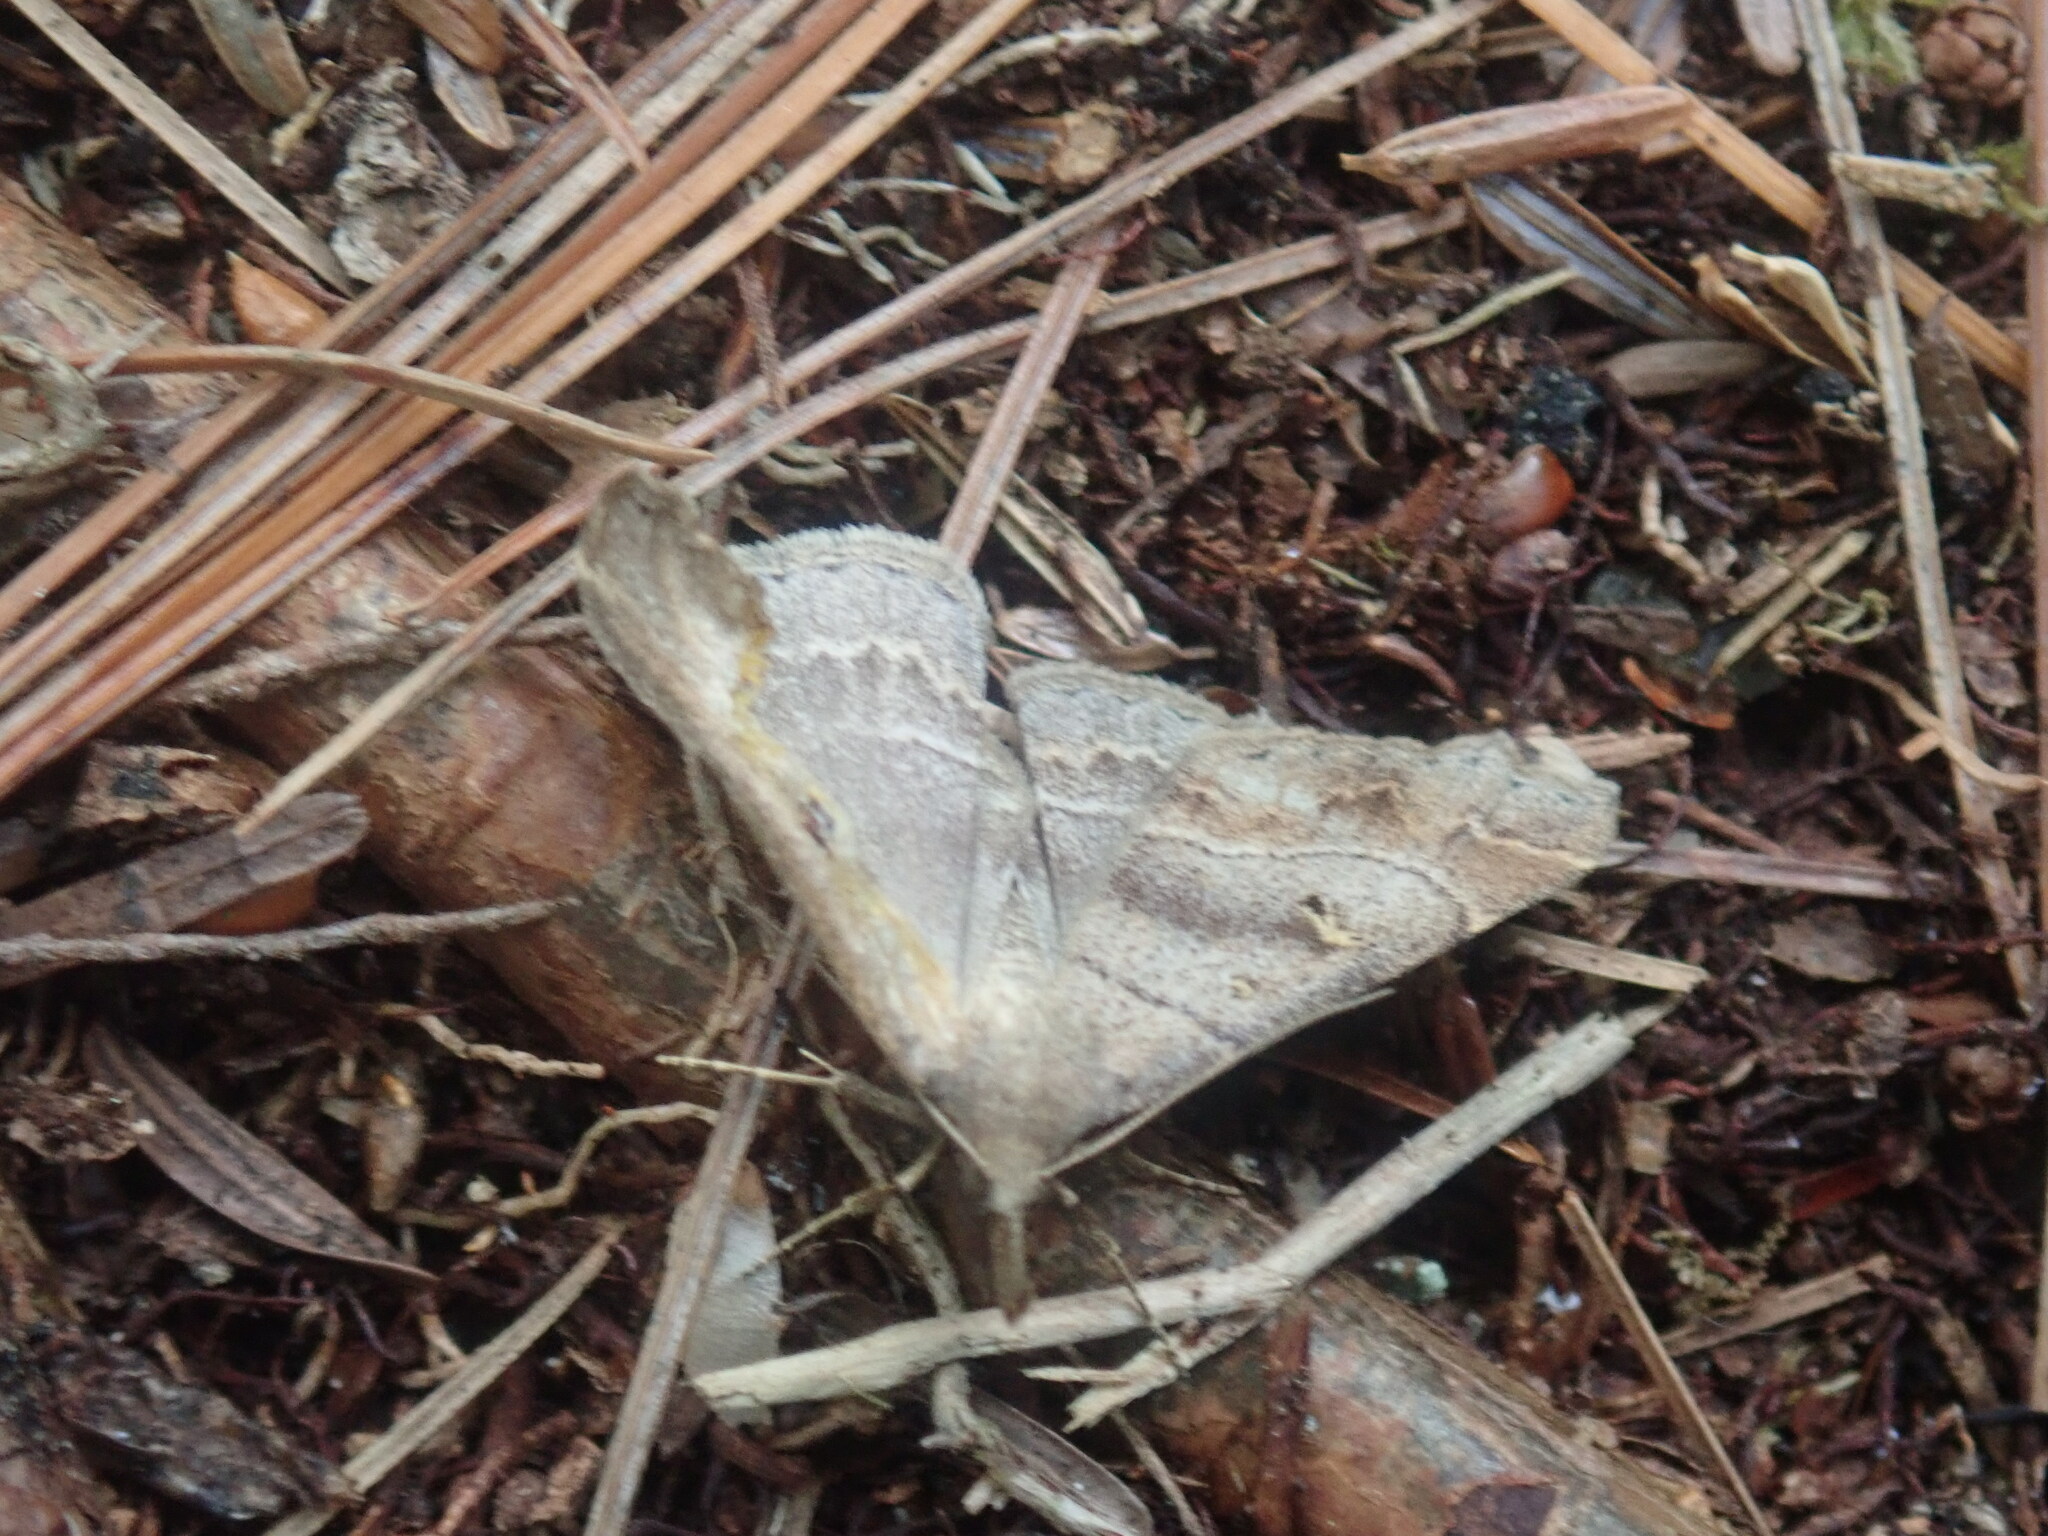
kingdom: Animalia
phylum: Arthropoda
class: Insecta
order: Lepidoptera
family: Erebidae
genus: Renia
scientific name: Renia flavipunctalis
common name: Yellow-spotted renia moth
